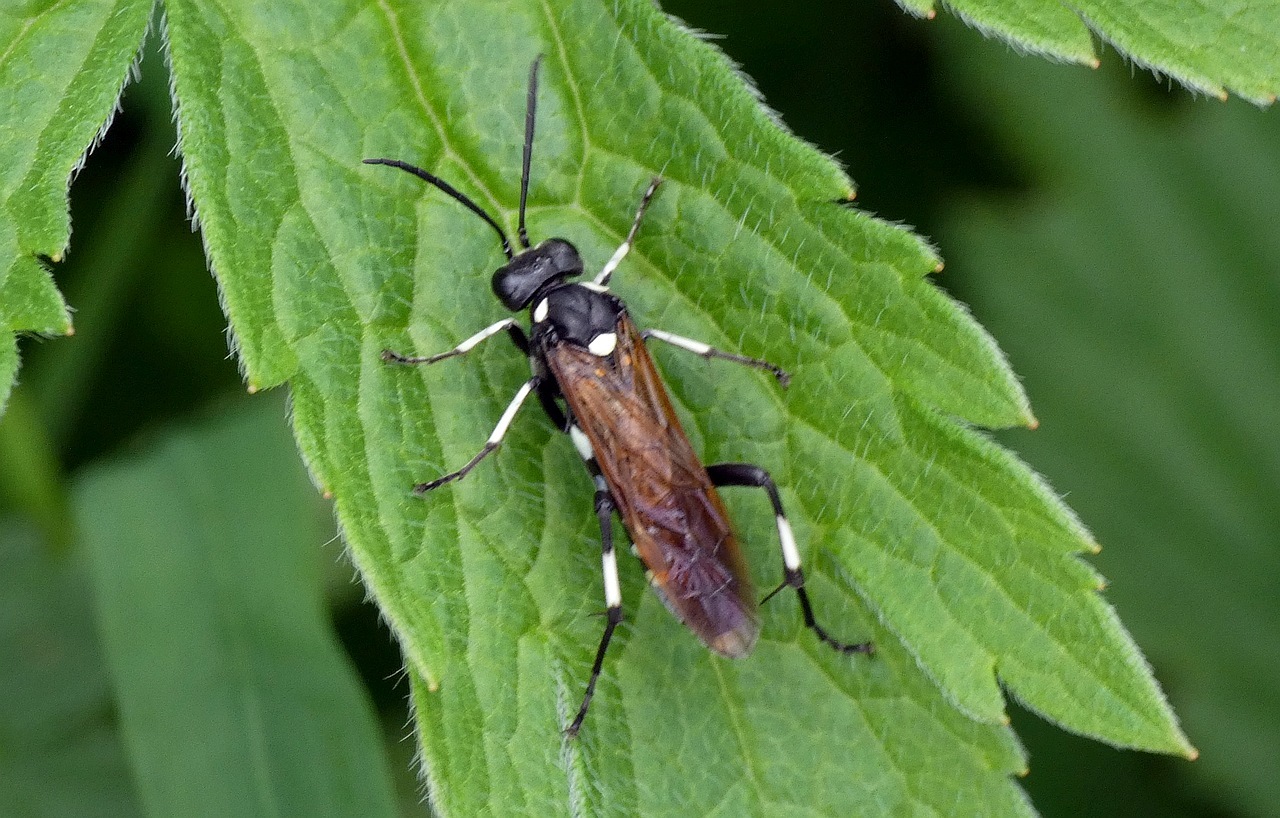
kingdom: Animalia
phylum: Arthropoda
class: Insecta
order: Hymenoptera
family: Tenthredinidae
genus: Macrophya
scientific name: Macrophya duodecimpunctata
